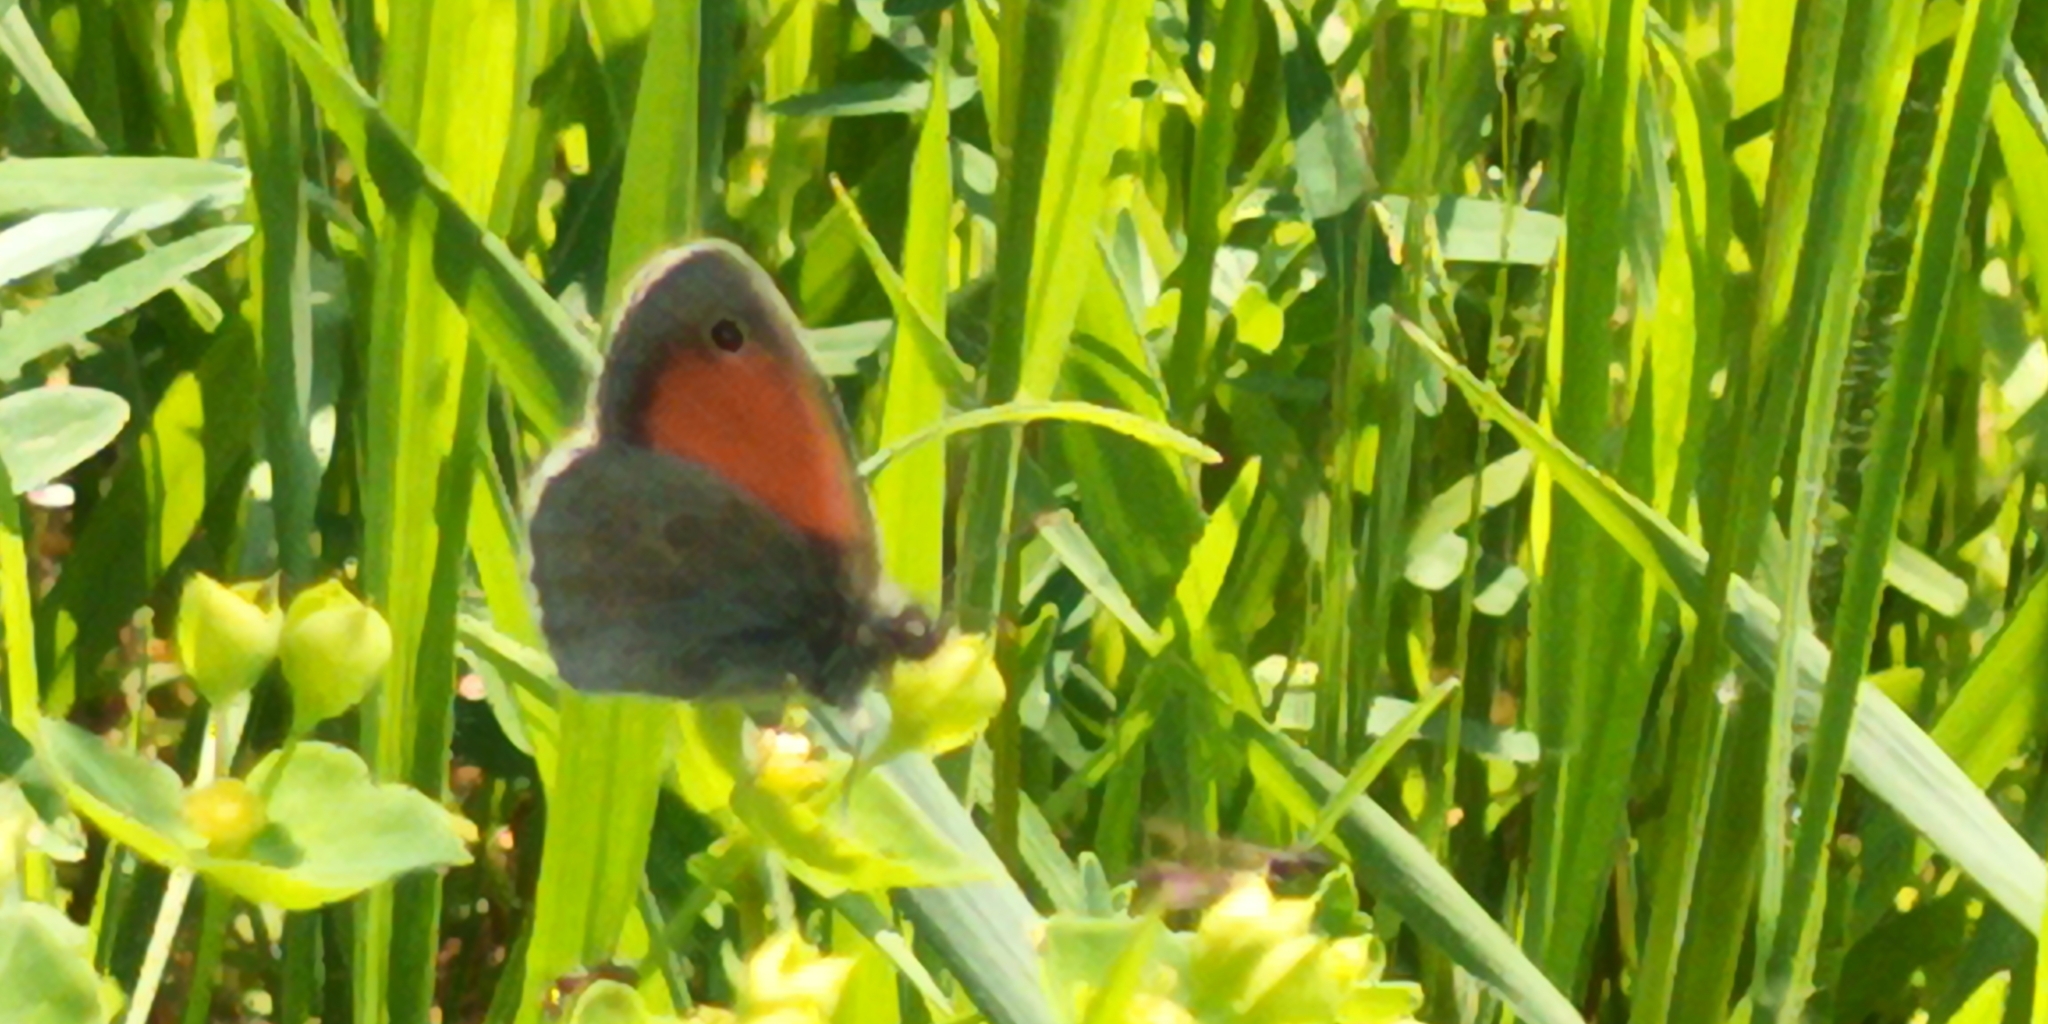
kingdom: Animalia
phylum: Arthropoda
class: Insecta
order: Lepidoptera
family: Nymphalidae
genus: Coenonympha
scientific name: Coenonympha pamphilus
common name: Small heath
